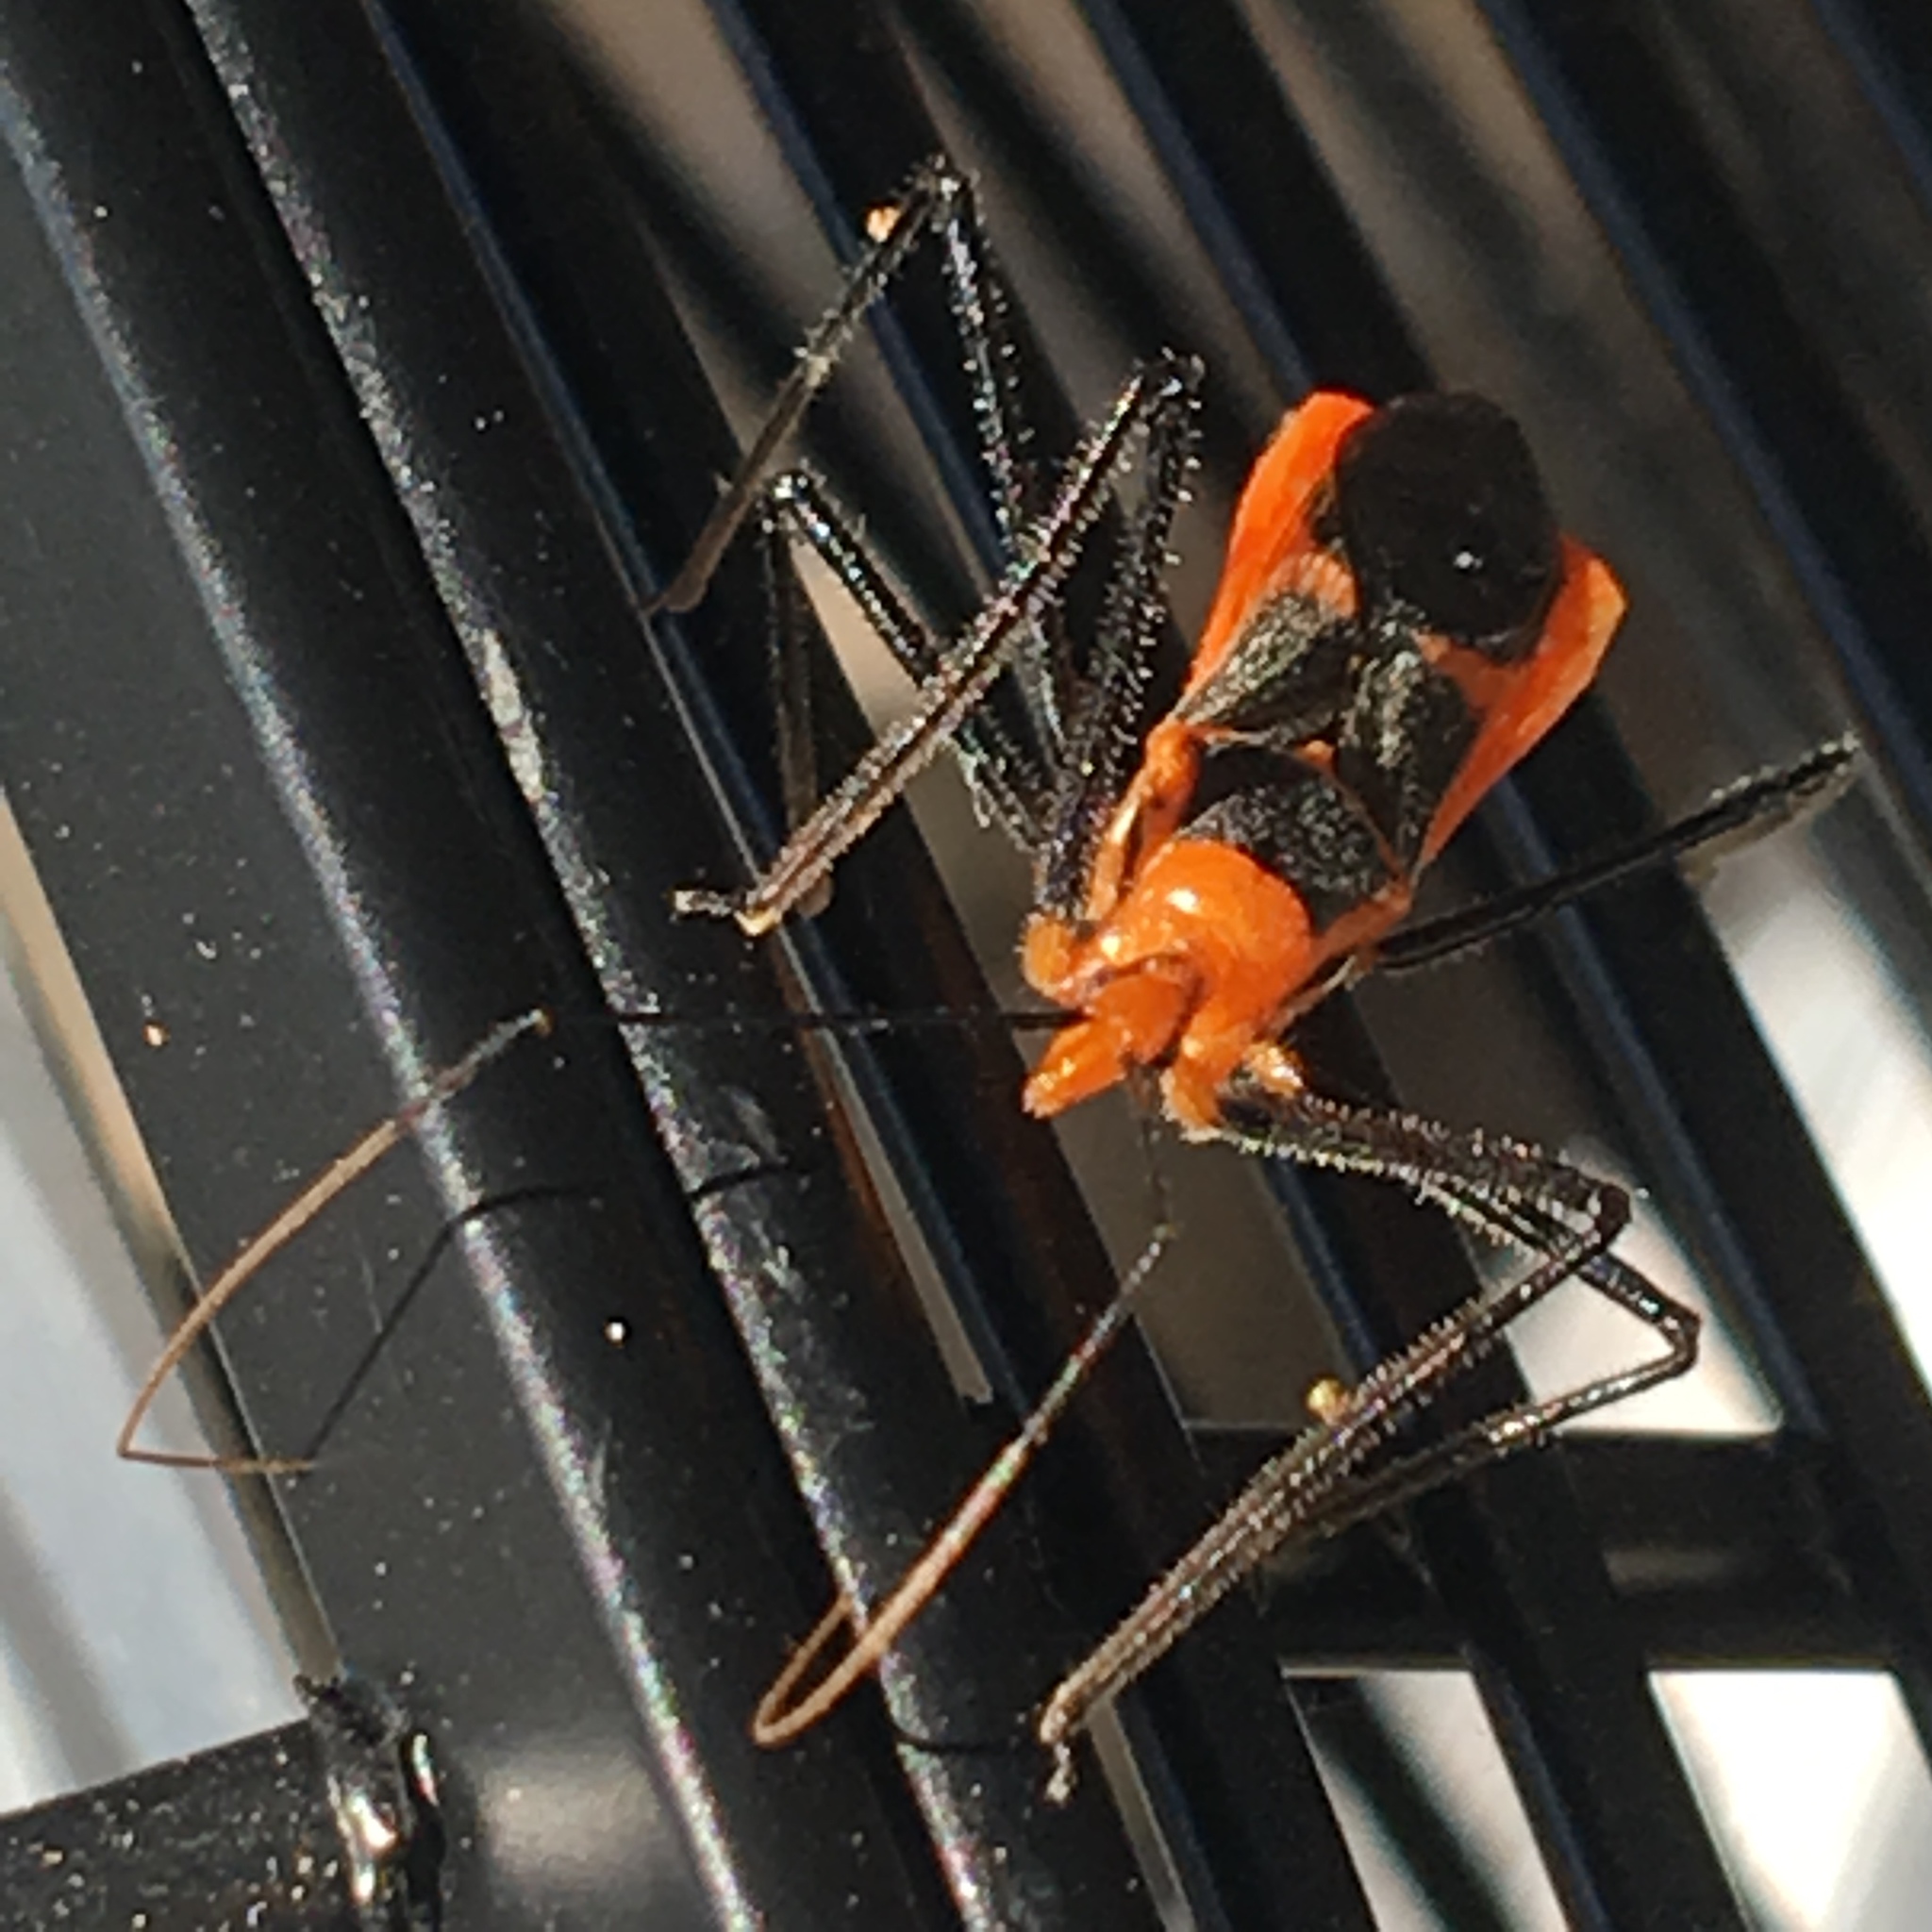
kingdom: Animalia
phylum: Arthropoda
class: Insecta
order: Hemiptera
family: Reduviidae
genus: Zelus
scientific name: Zelus longipes
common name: Milkweed assassin bug
